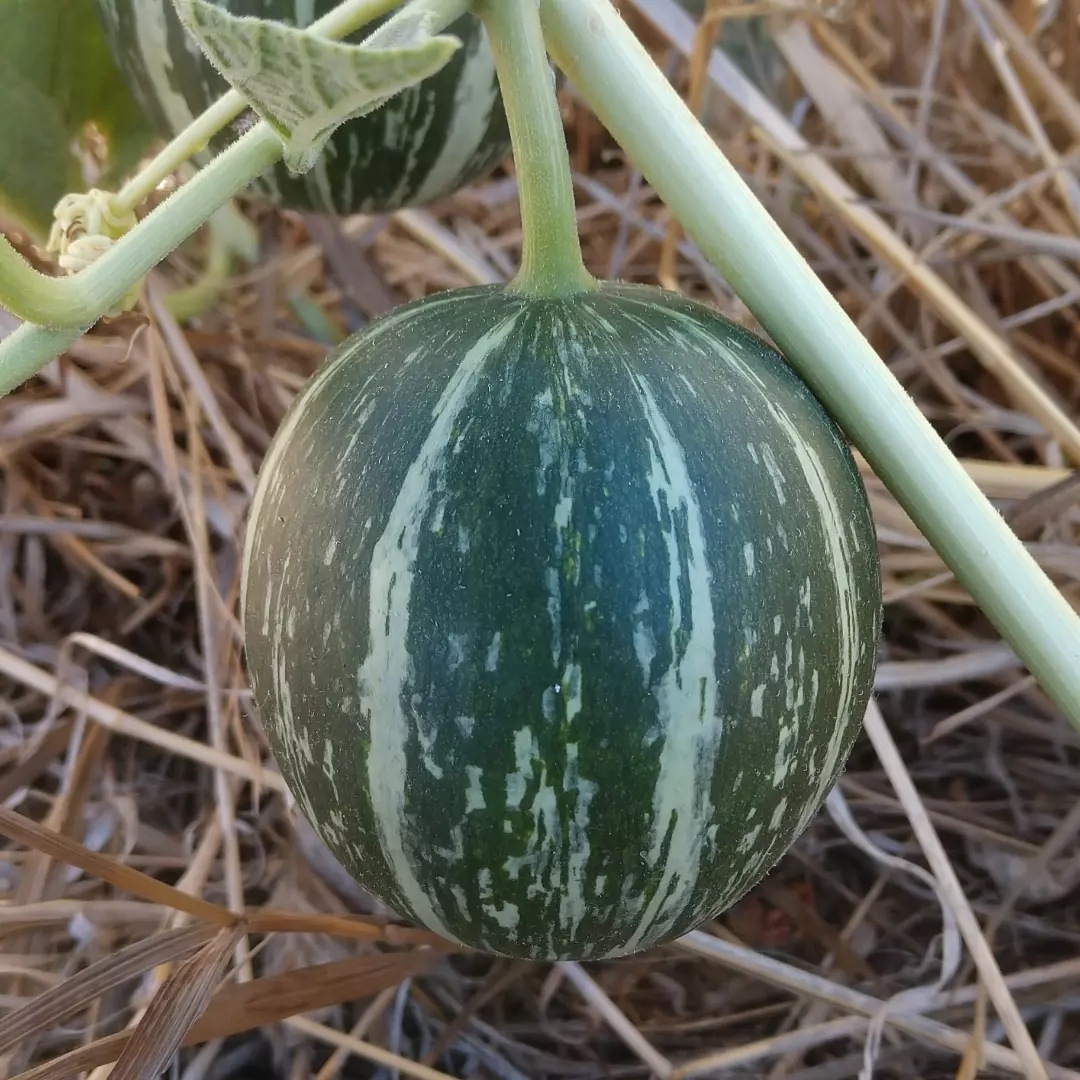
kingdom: Plantae
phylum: Tracheophyta
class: Magnoliopsida
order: Cucurbitales
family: Cucurbitaceae
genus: Cucurbita
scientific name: Cucurbita foetidissima
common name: Buffalo gourd
